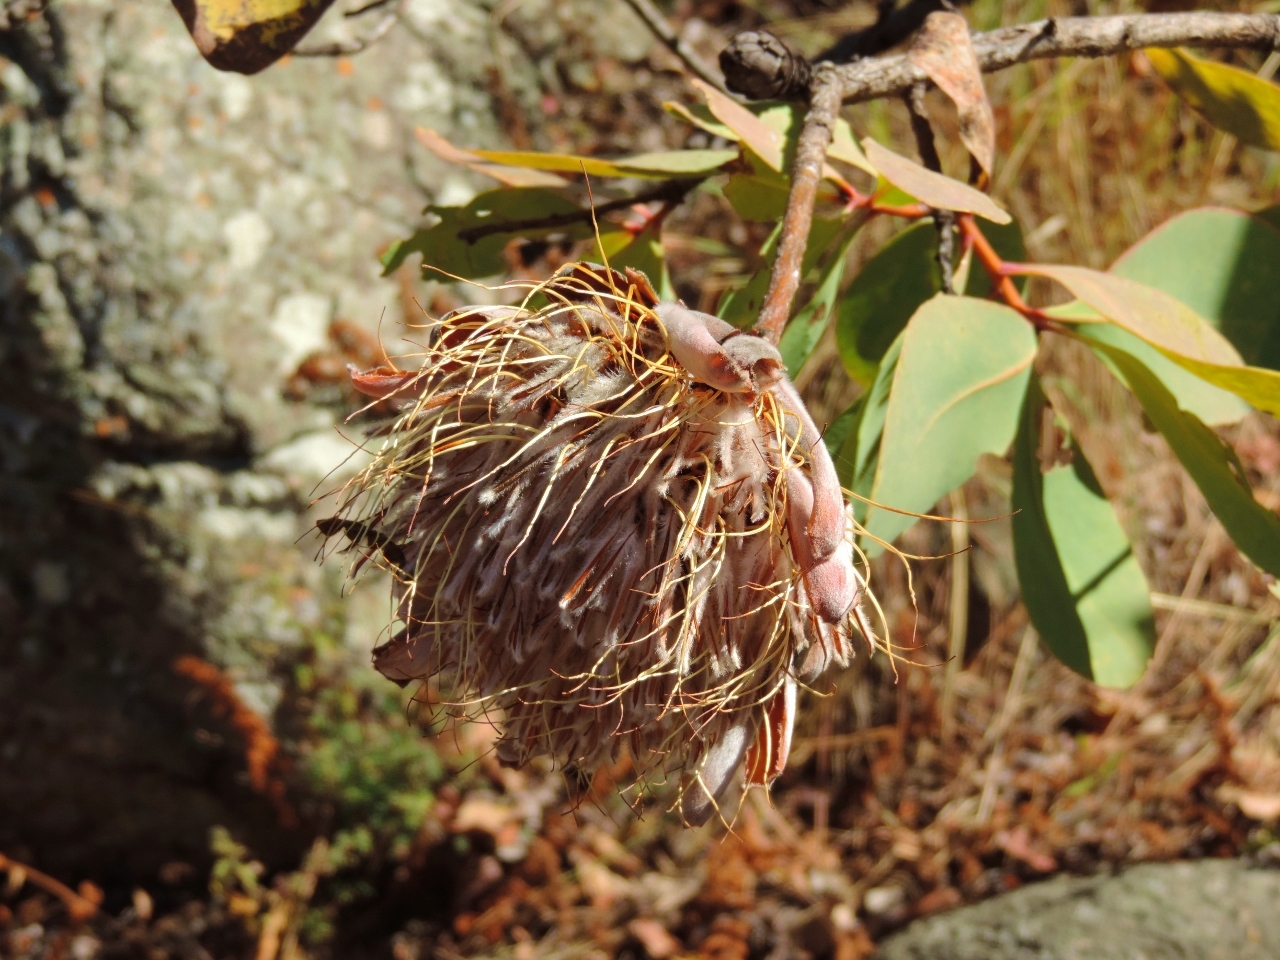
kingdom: Plantae
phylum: Tracheophyta
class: Magnoliopsida
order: Proteales
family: Proteaceae
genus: Protea
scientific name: Protea angolensis
